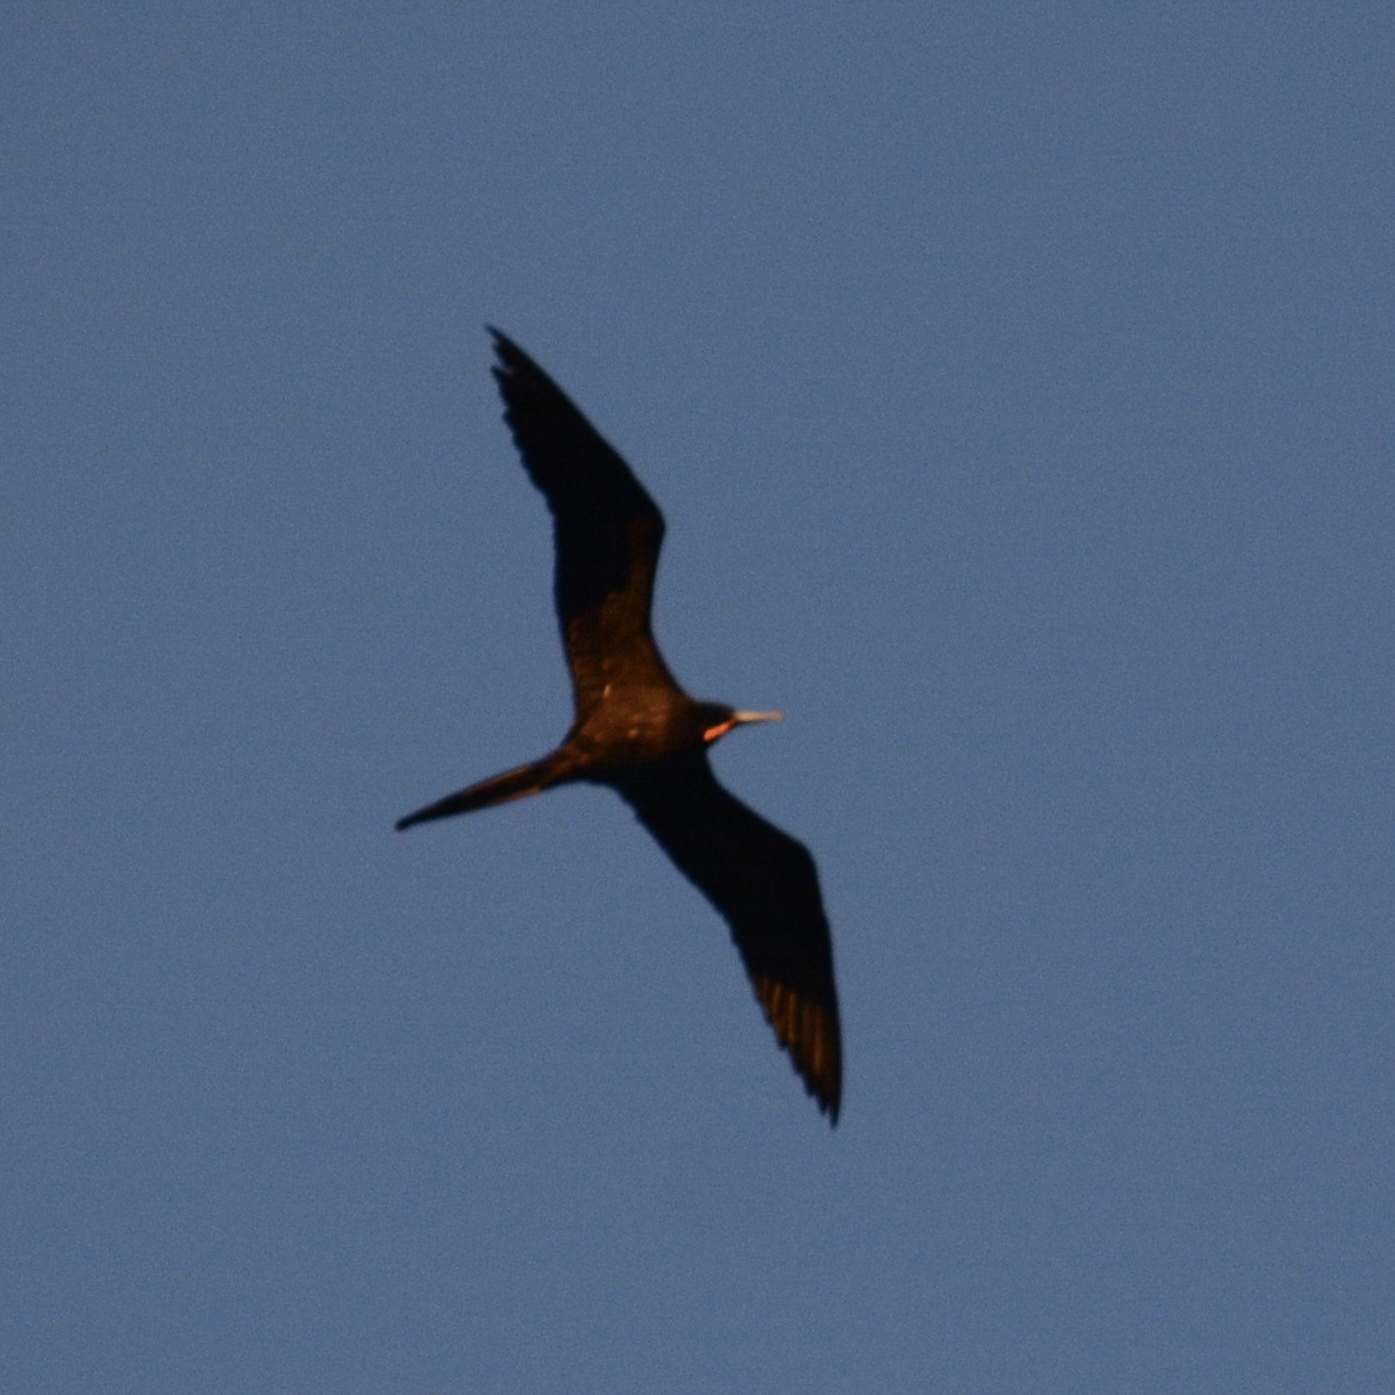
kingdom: Animalia
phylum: Chordata
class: Aves
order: Suliformes
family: Fregatidae
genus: Fregata
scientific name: Fregata magnificens
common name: Magnificent frigatebird
